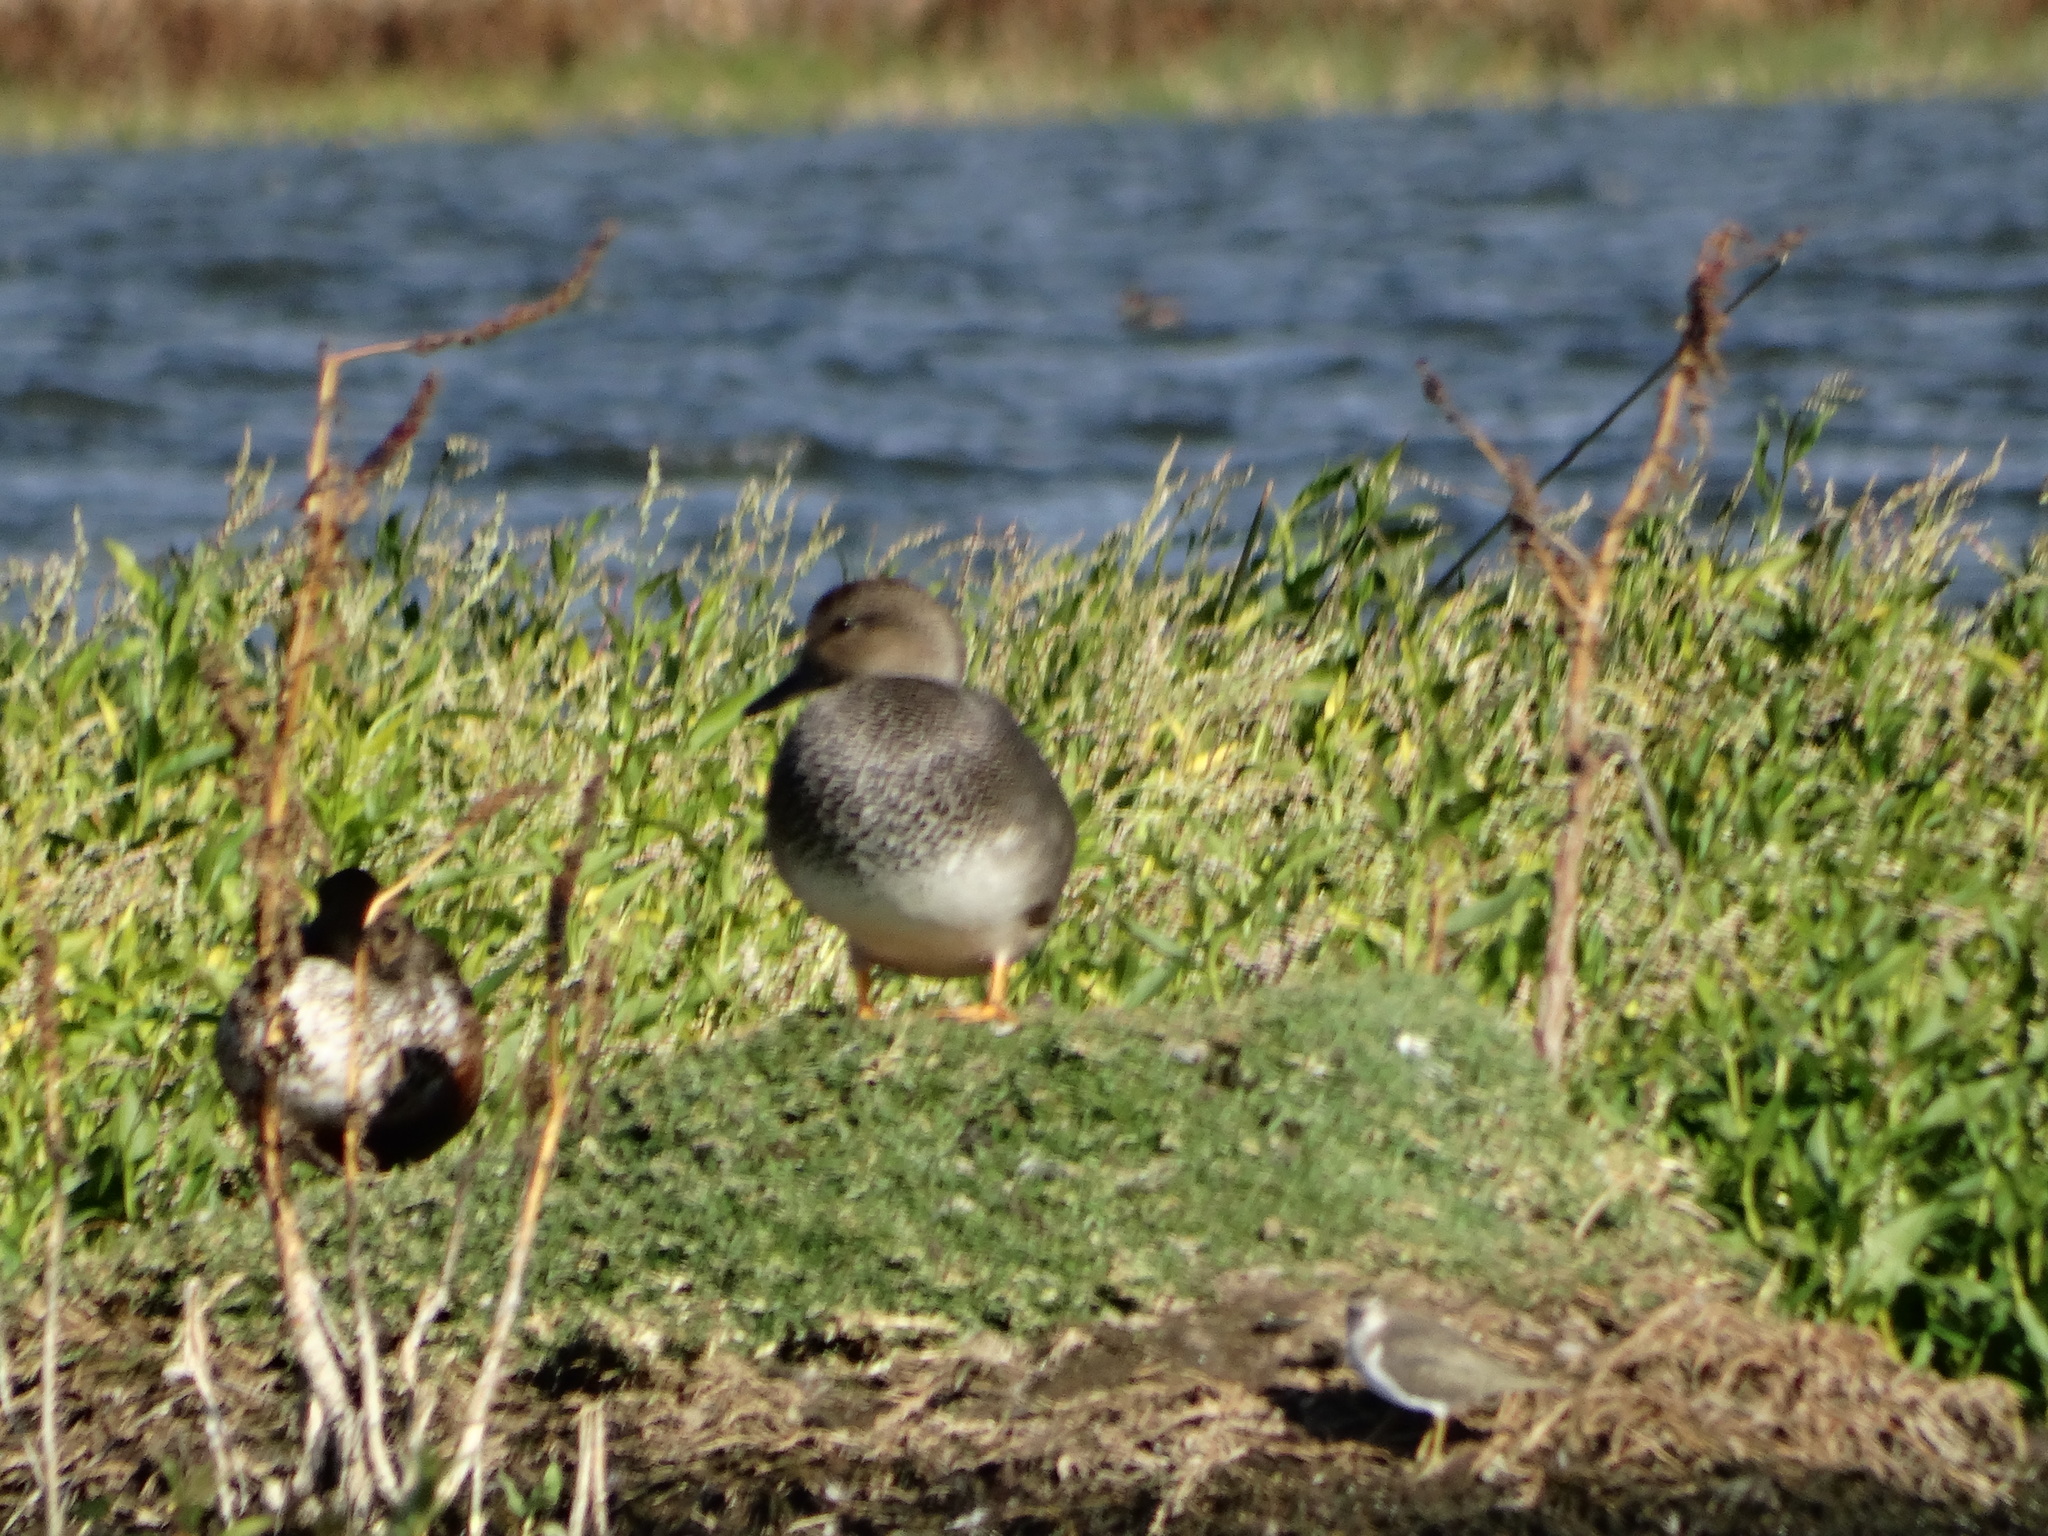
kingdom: Animalia
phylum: Chordata
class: Aves
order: Anseriformes
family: Anatidae
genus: Mareca
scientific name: Mareca strepera
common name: Gadwall
